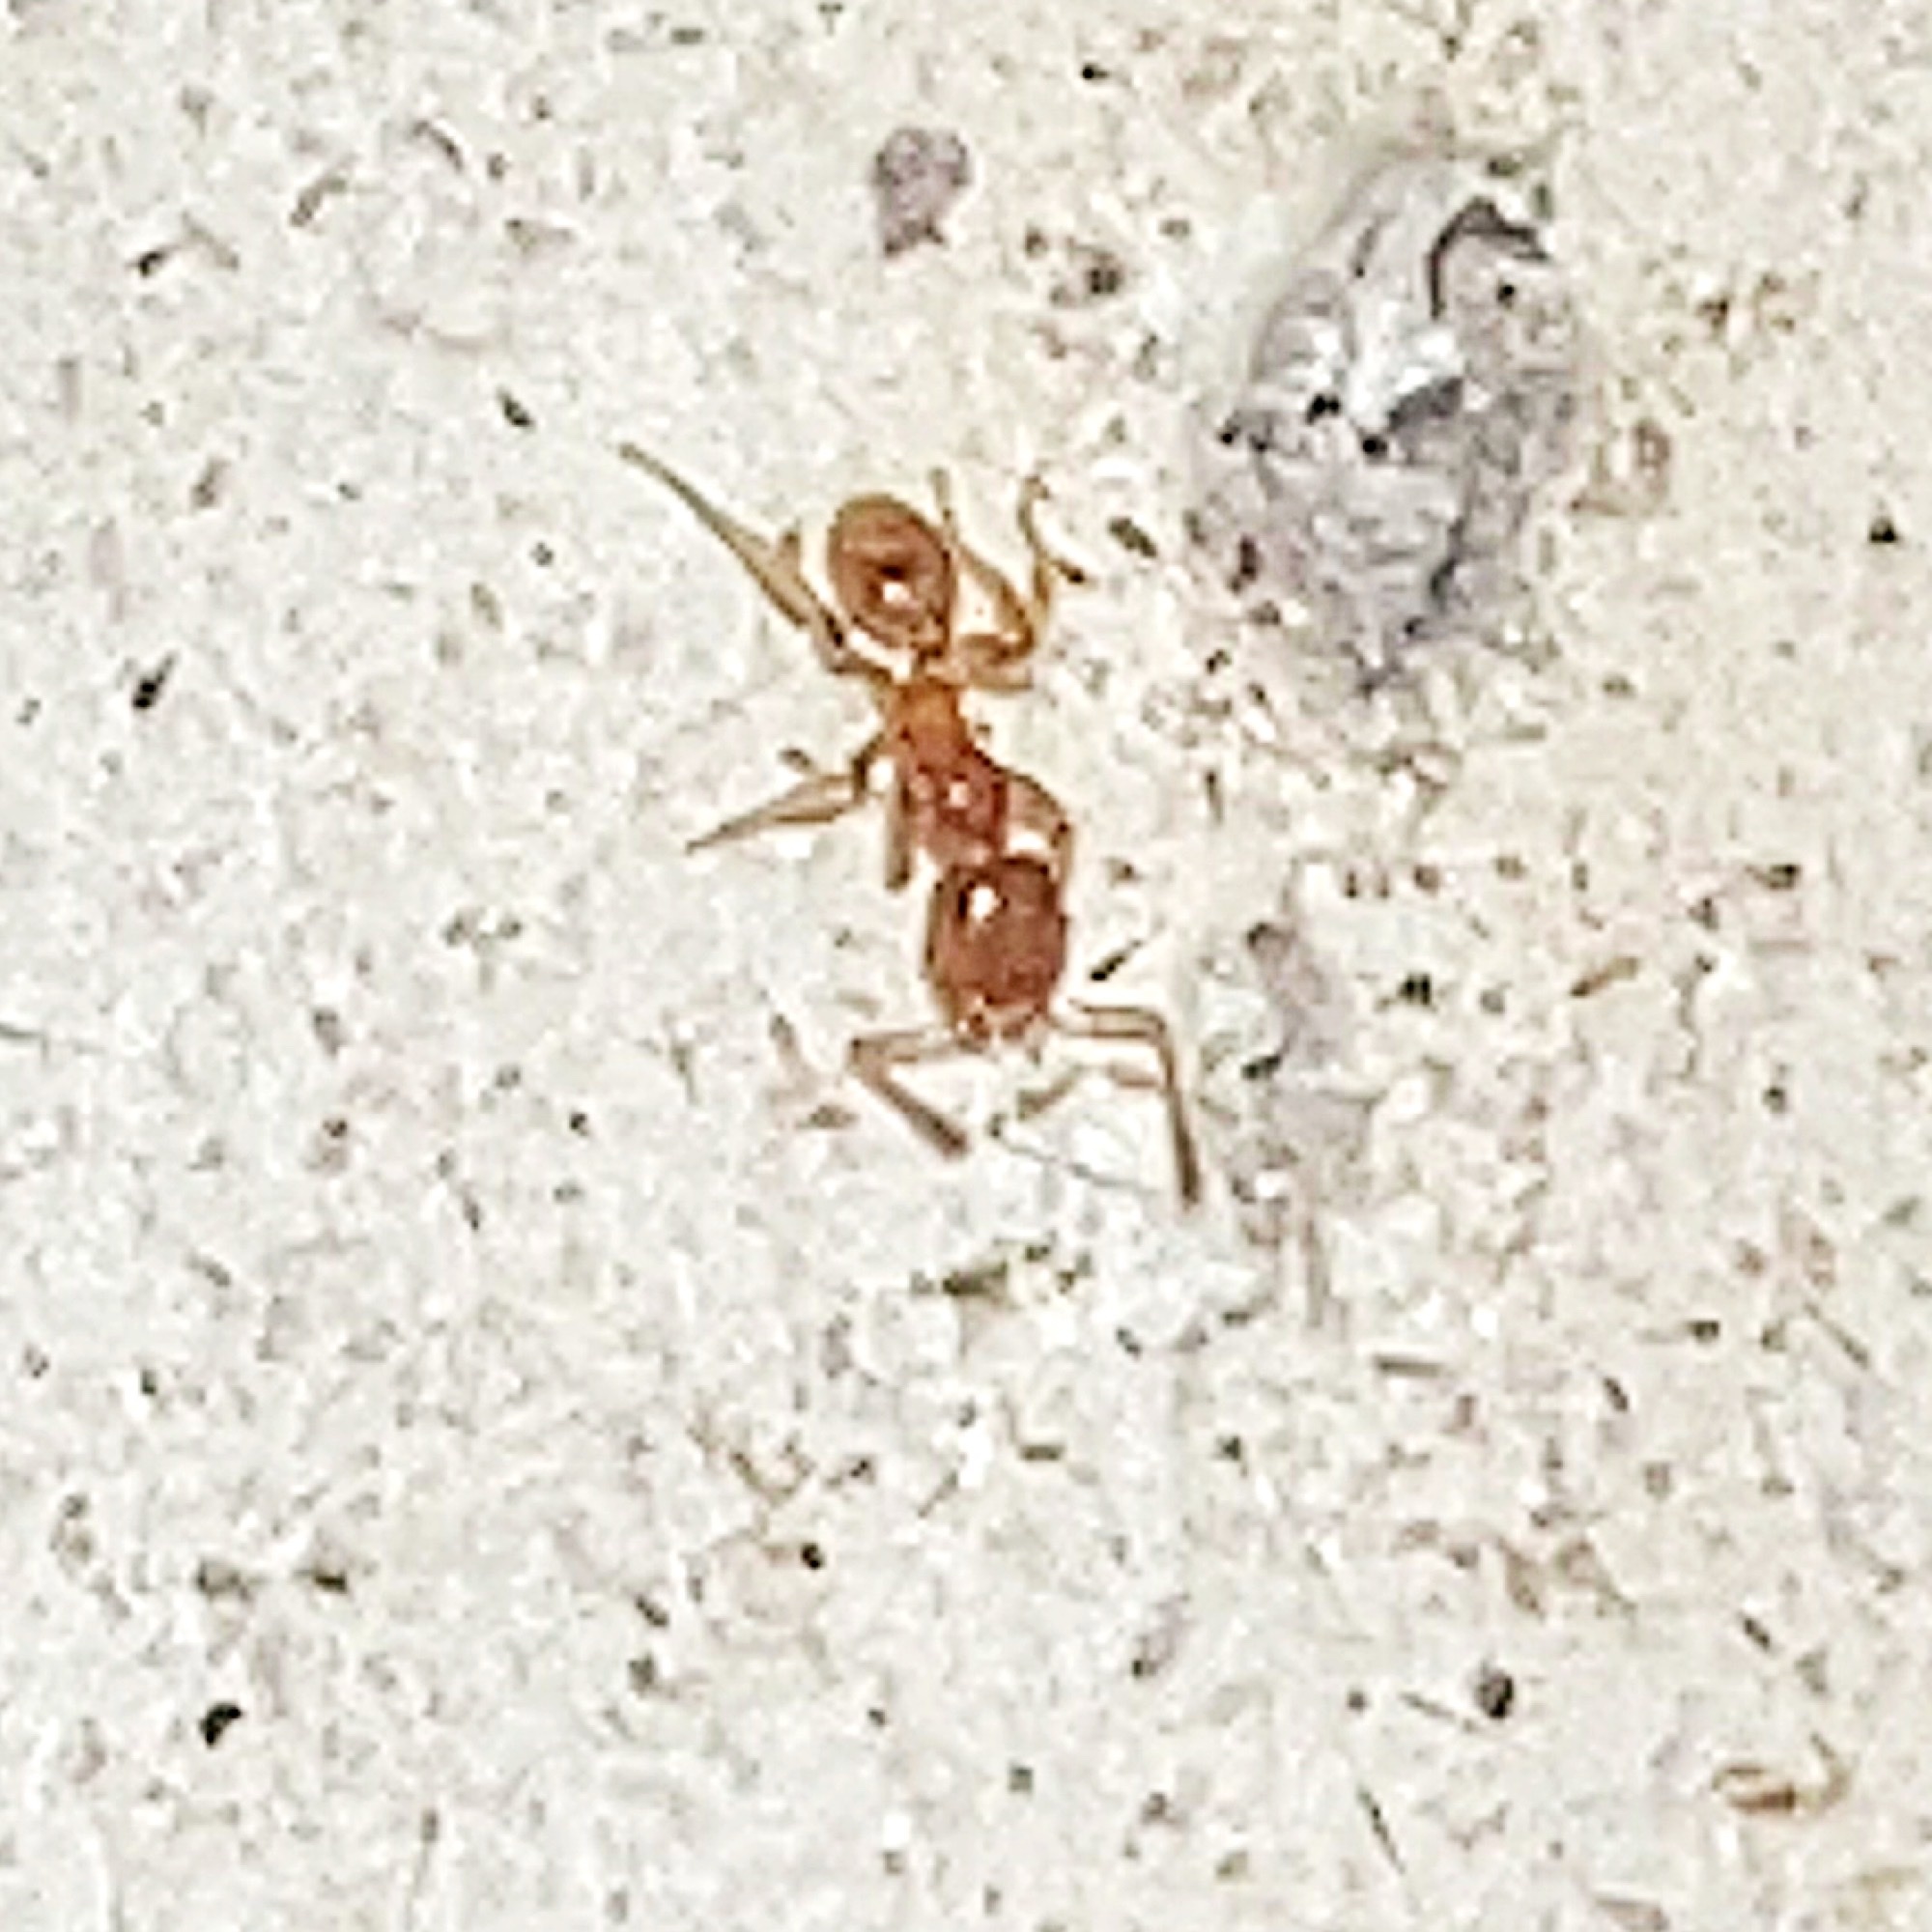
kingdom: Animalia
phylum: Arthropoda
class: Insecta
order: Hymenoptera
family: Formicidae
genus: Pheidole
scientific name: Pheidole tysoni
